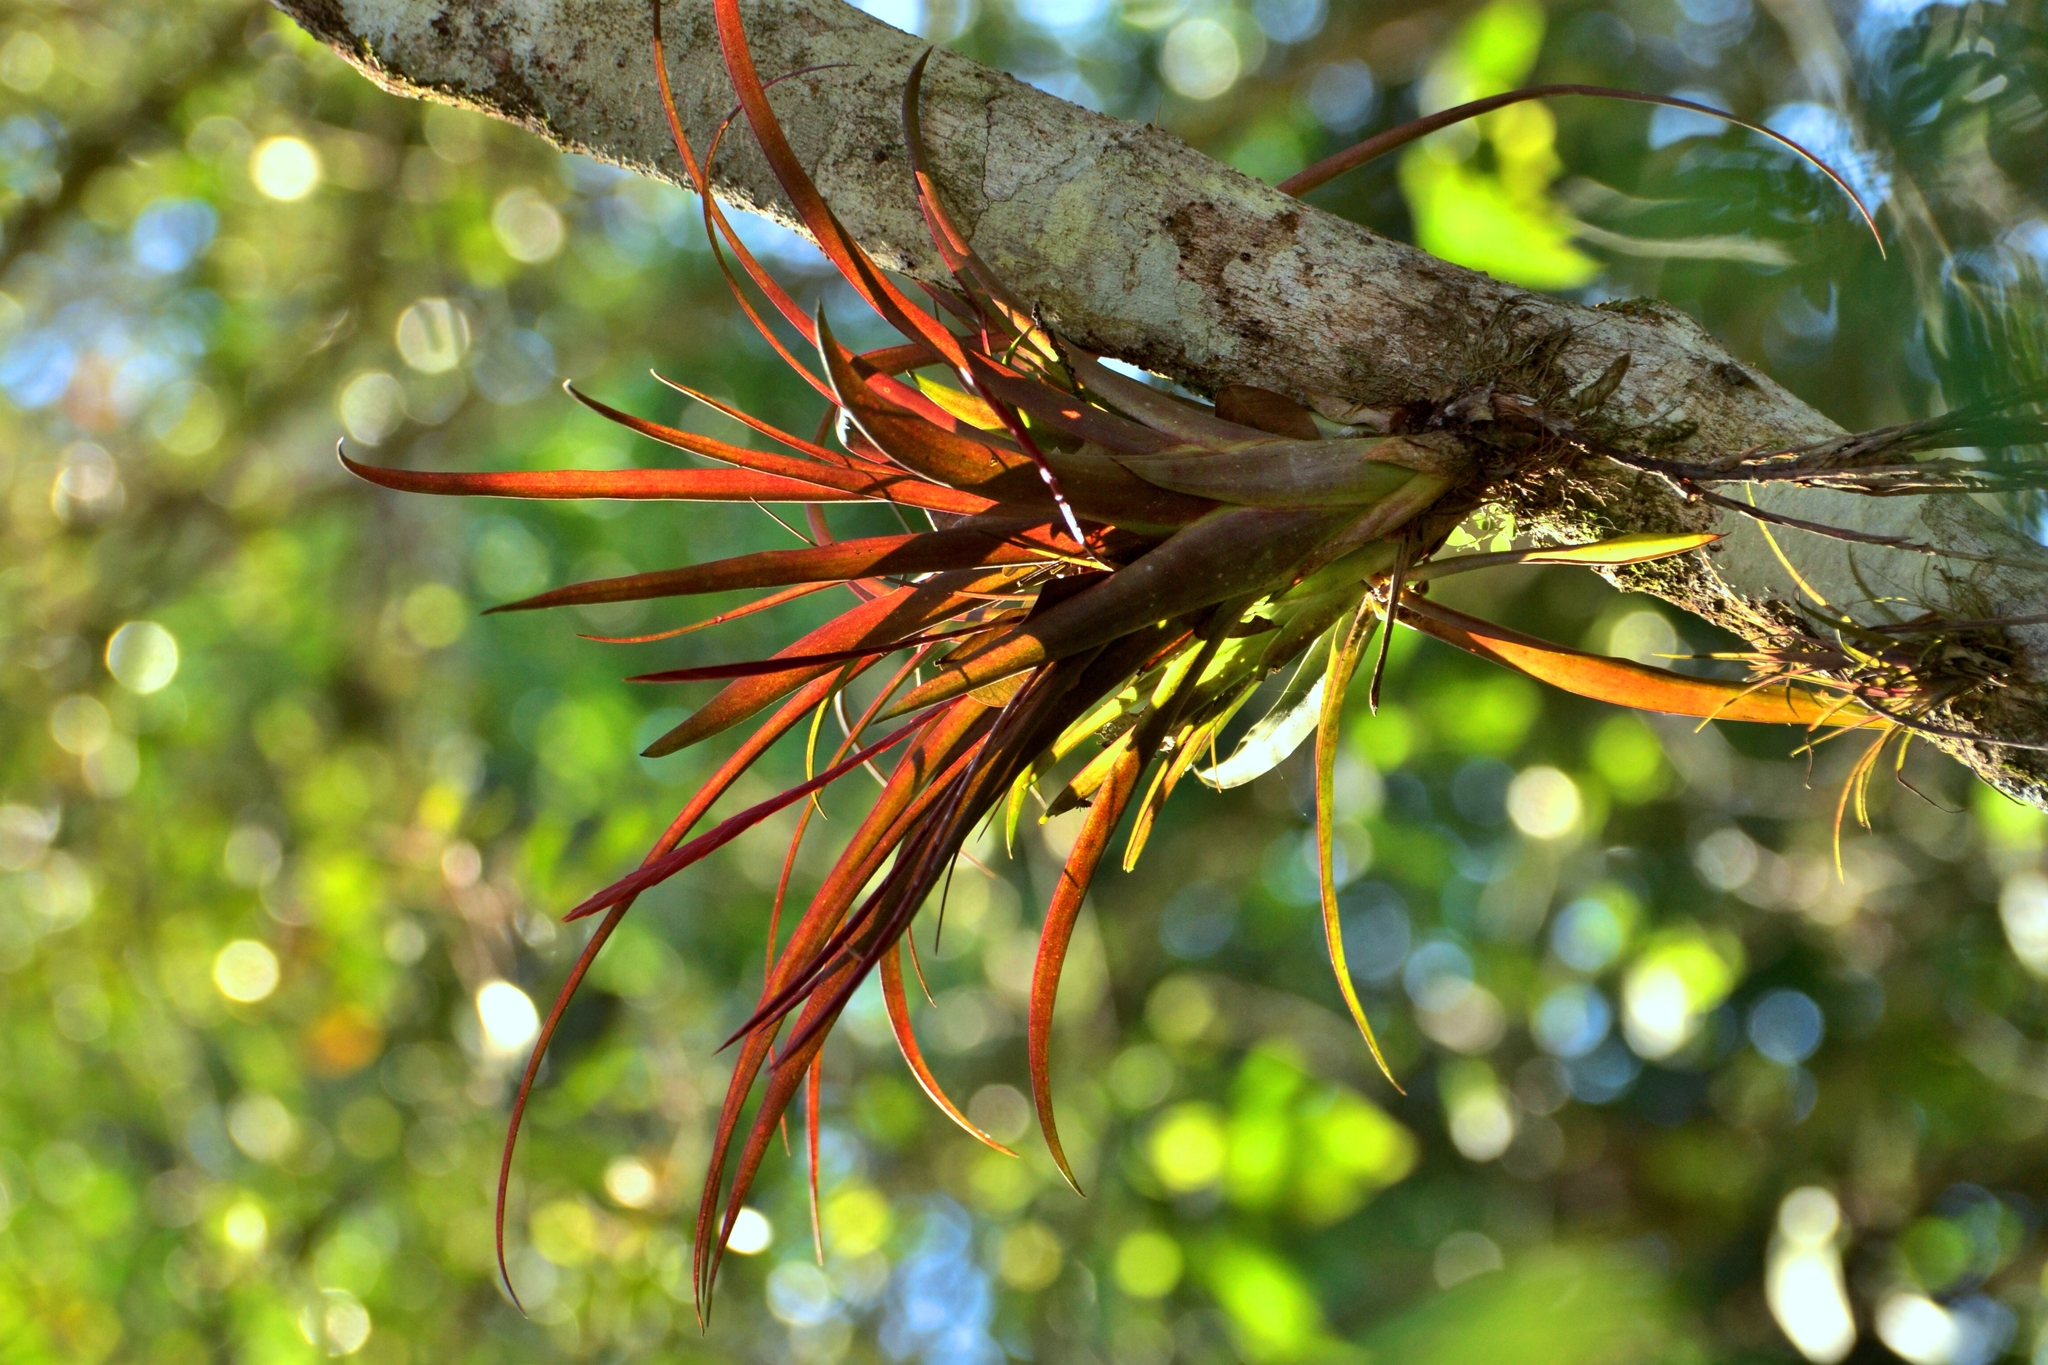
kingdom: Plantae
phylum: Tracheophyta
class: Liliopsida
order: Poales
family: Bromeliaceae
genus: Tillandsia
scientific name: Tillandsia flabellata
